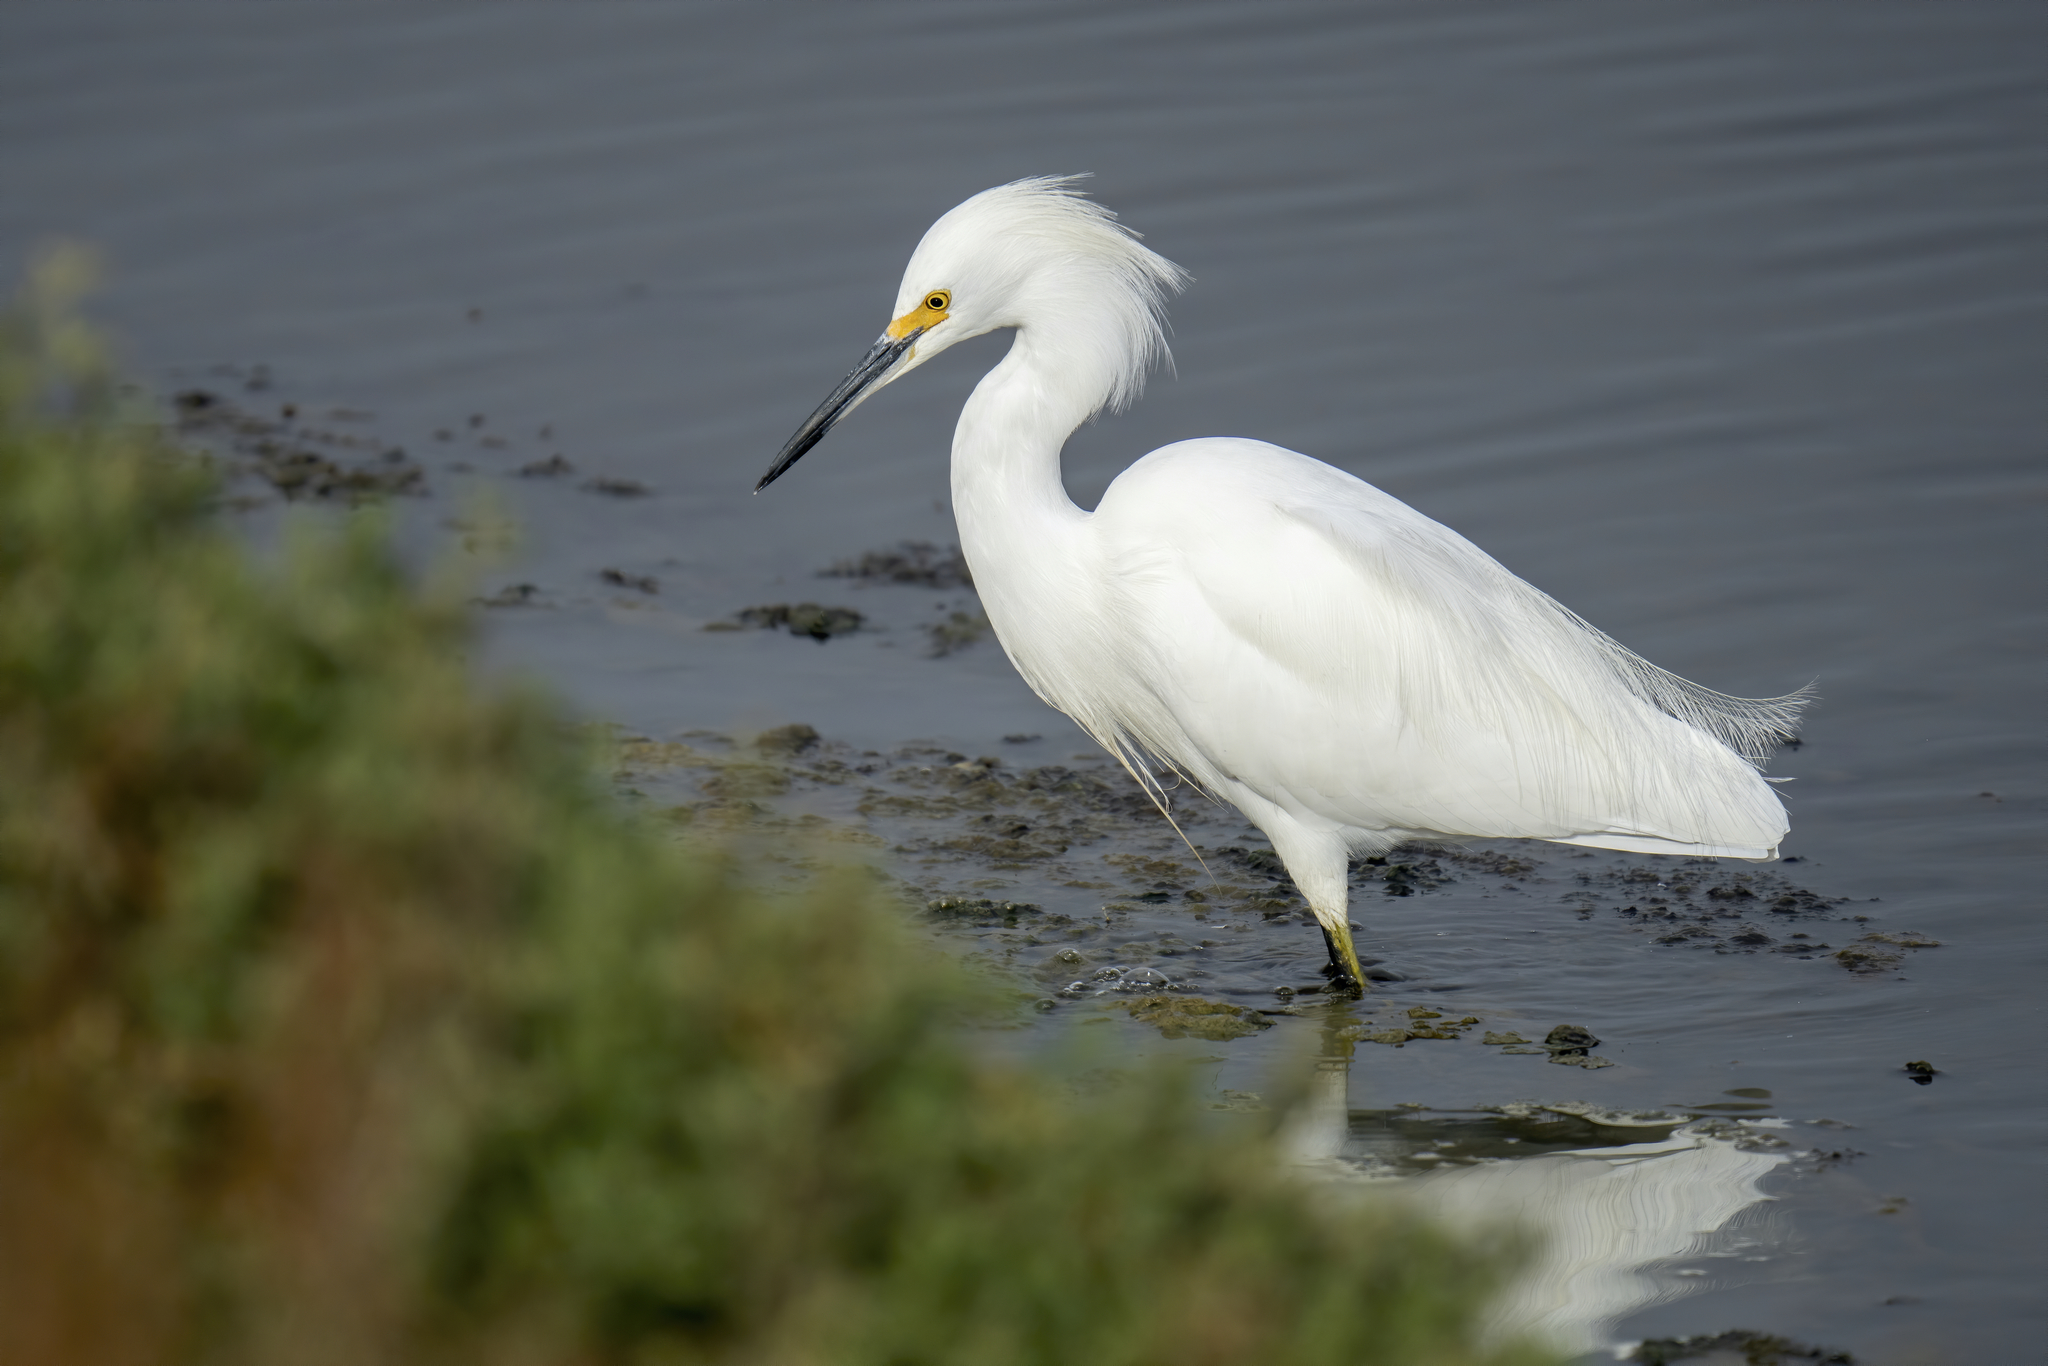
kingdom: Animalia
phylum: Chordata
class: Aves
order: Pelecaniformes
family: Ardeidae
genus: Egretta
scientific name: Egretta thula
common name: Snowy egret
